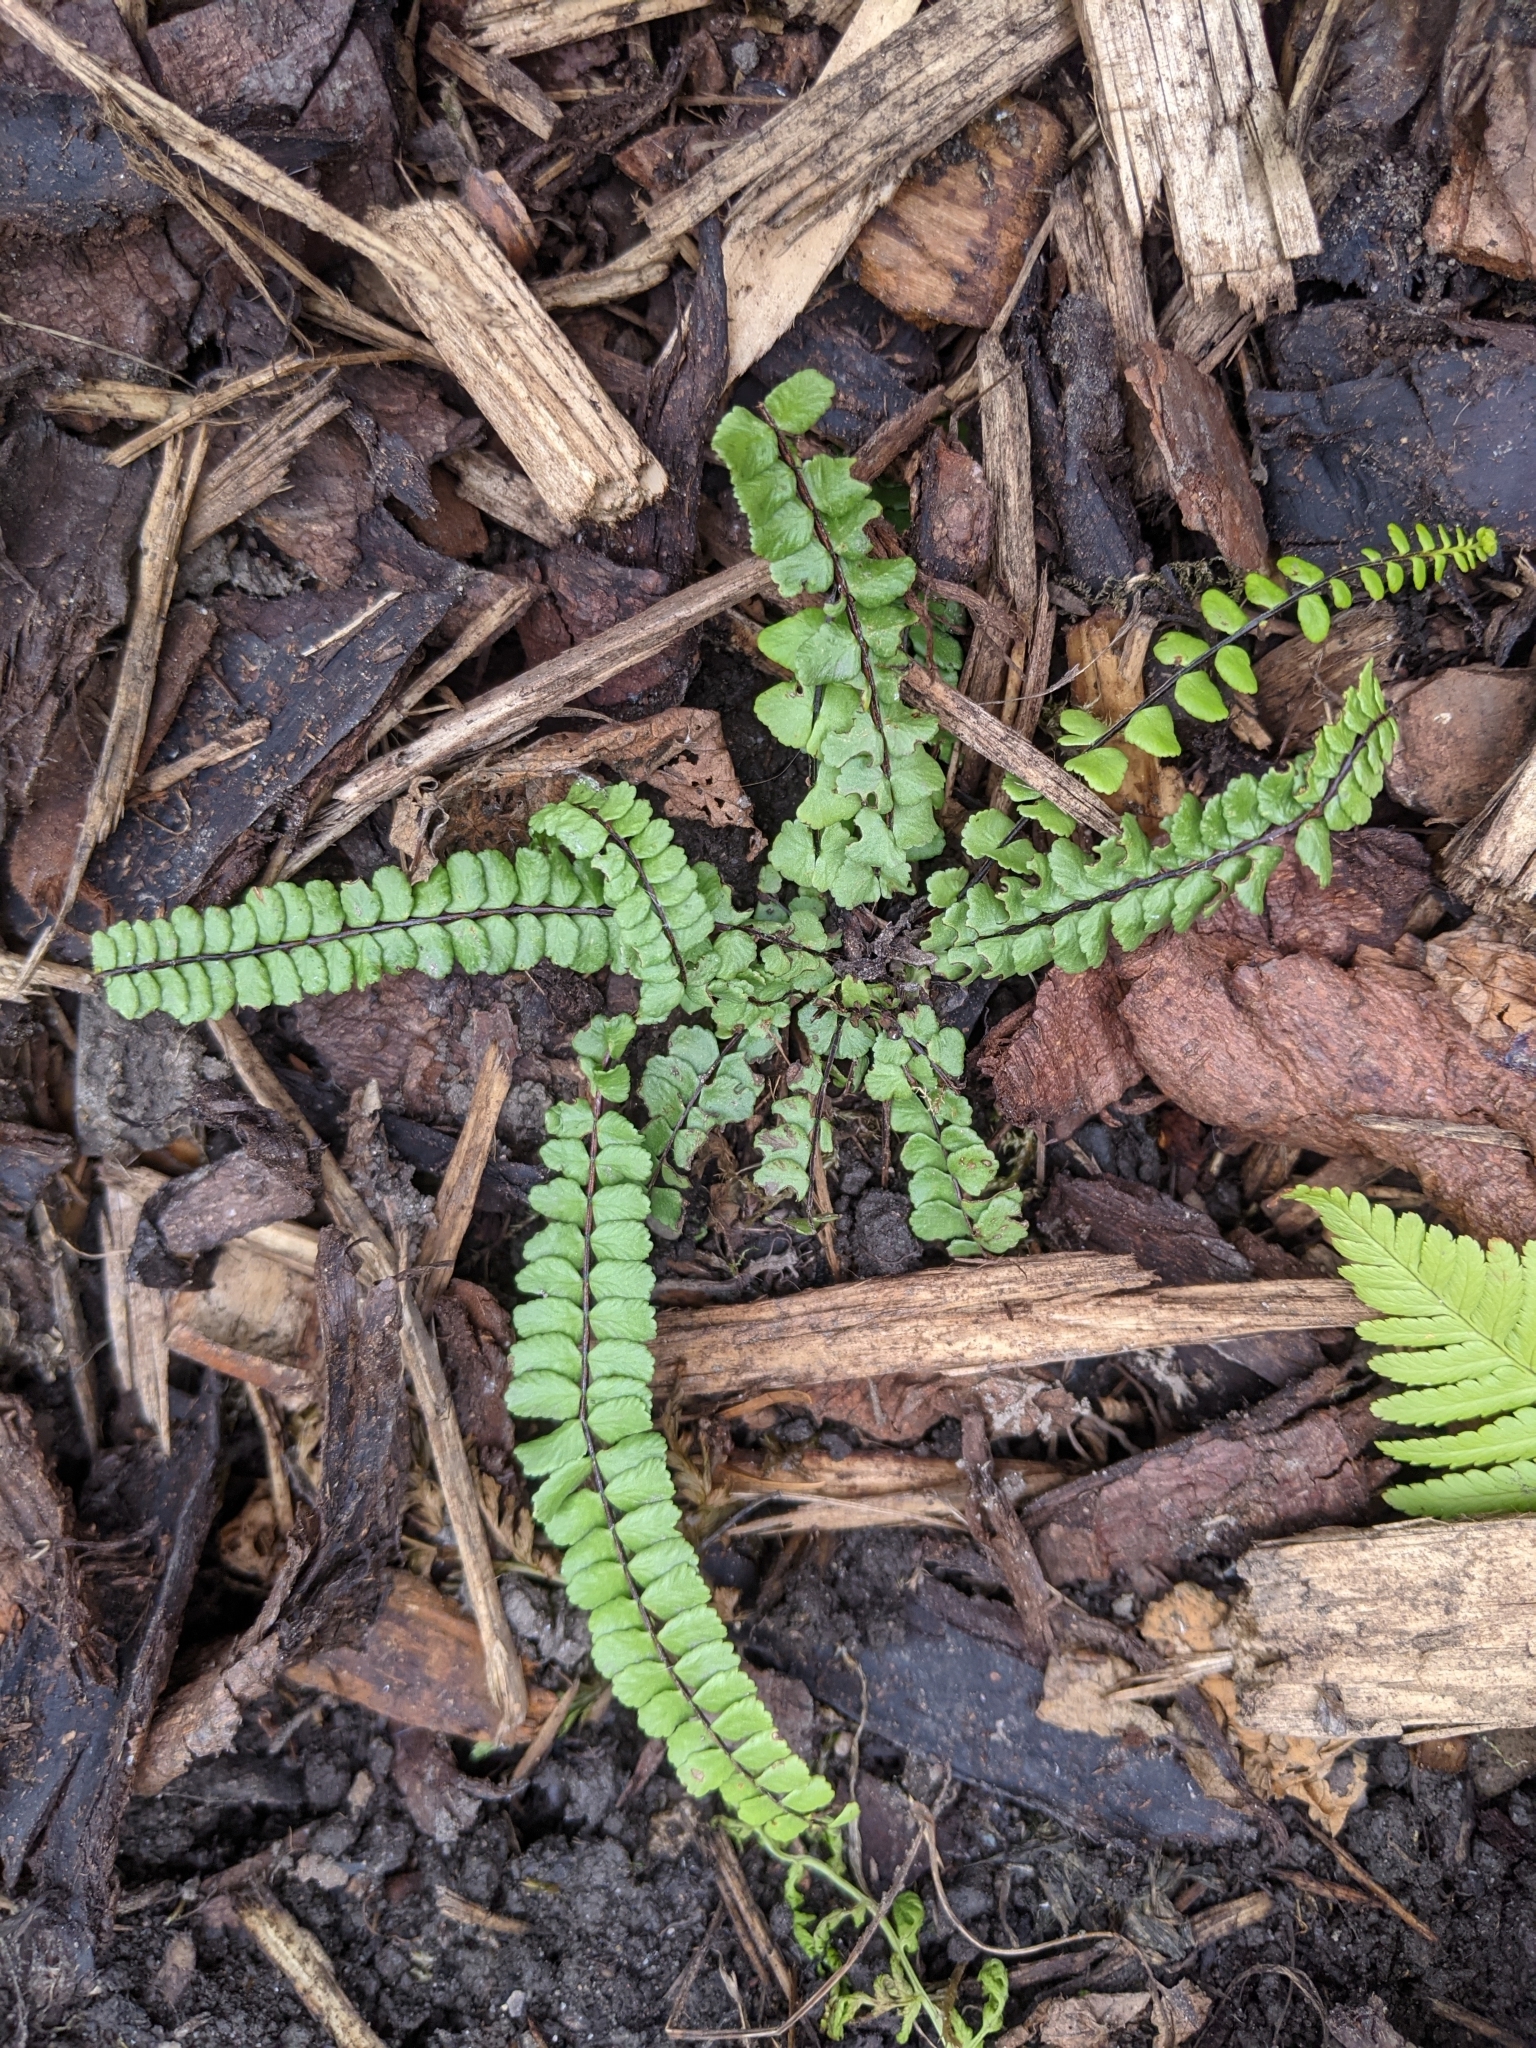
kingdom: Plantae
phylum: Tracheophyta
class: Polypodiopsida
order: Polypodiales
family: Aspleniaceae
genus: Asplenium
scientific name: Asplenium trichomanes
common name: Maidenhair spleenwort
